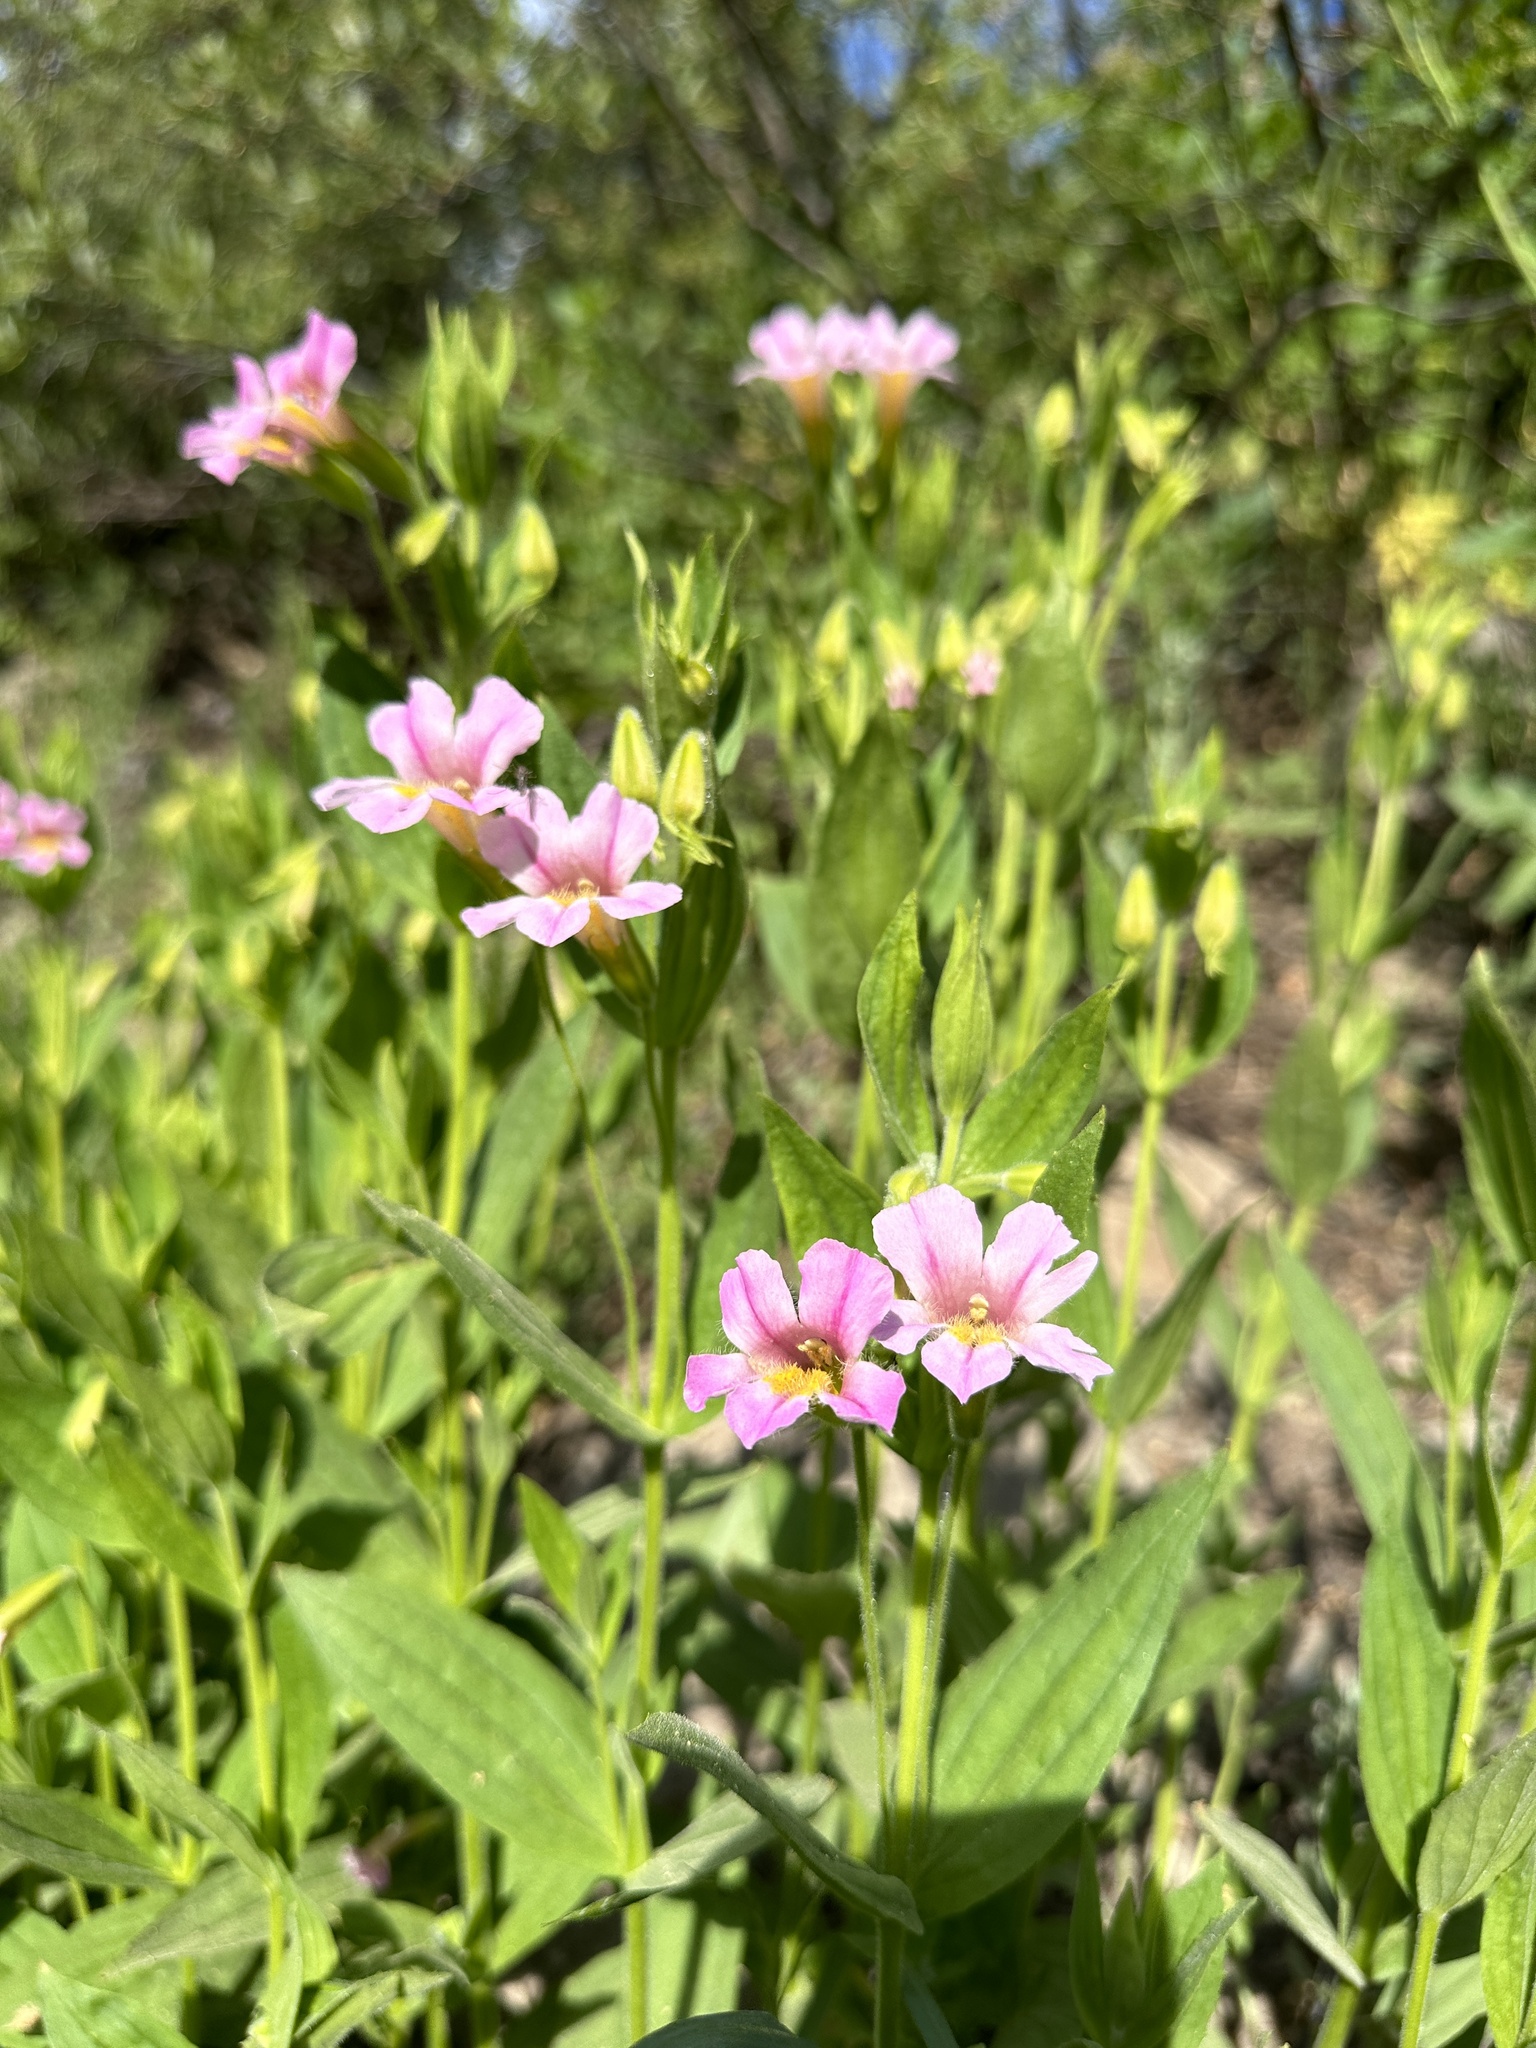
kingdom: Plantae
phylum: Tracheophyta
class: Magnoliopsida
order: Lamiales
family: Phrymaceae
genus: Erythranthe
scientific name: Erythranthe erubescens
